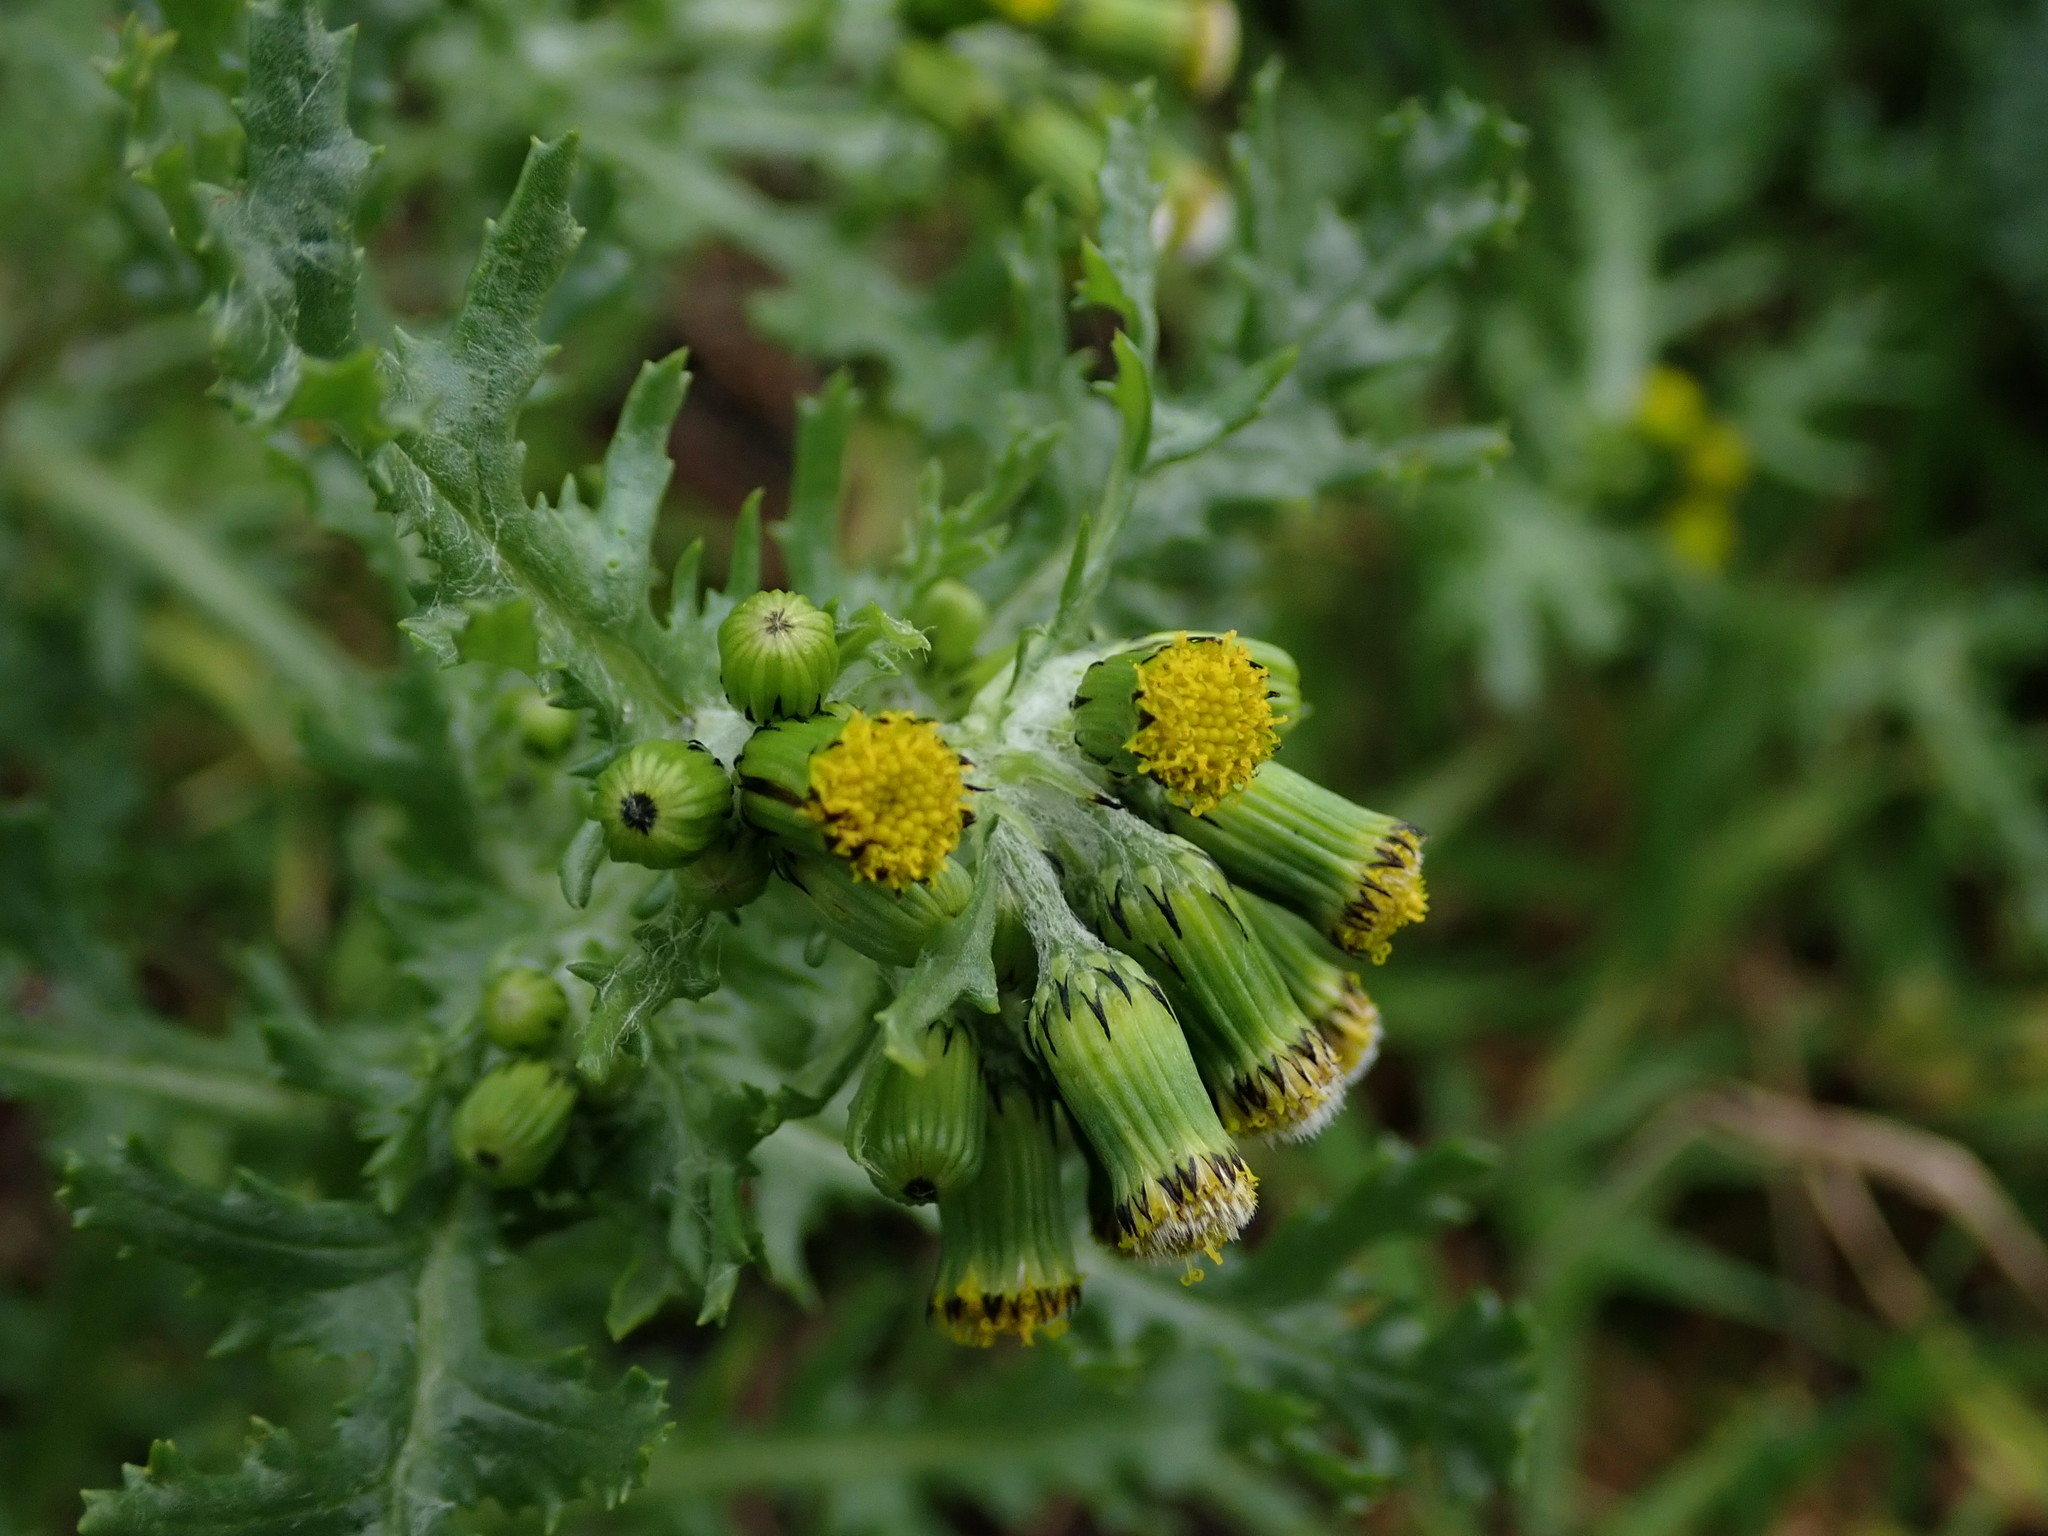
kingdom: Plantae
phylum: Tracheophyta
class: Magnoliopsida
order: Asterales
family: Asteraceae
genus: Senecio
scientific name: Senecio vulgaris
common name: Old-man-in-the-spring
